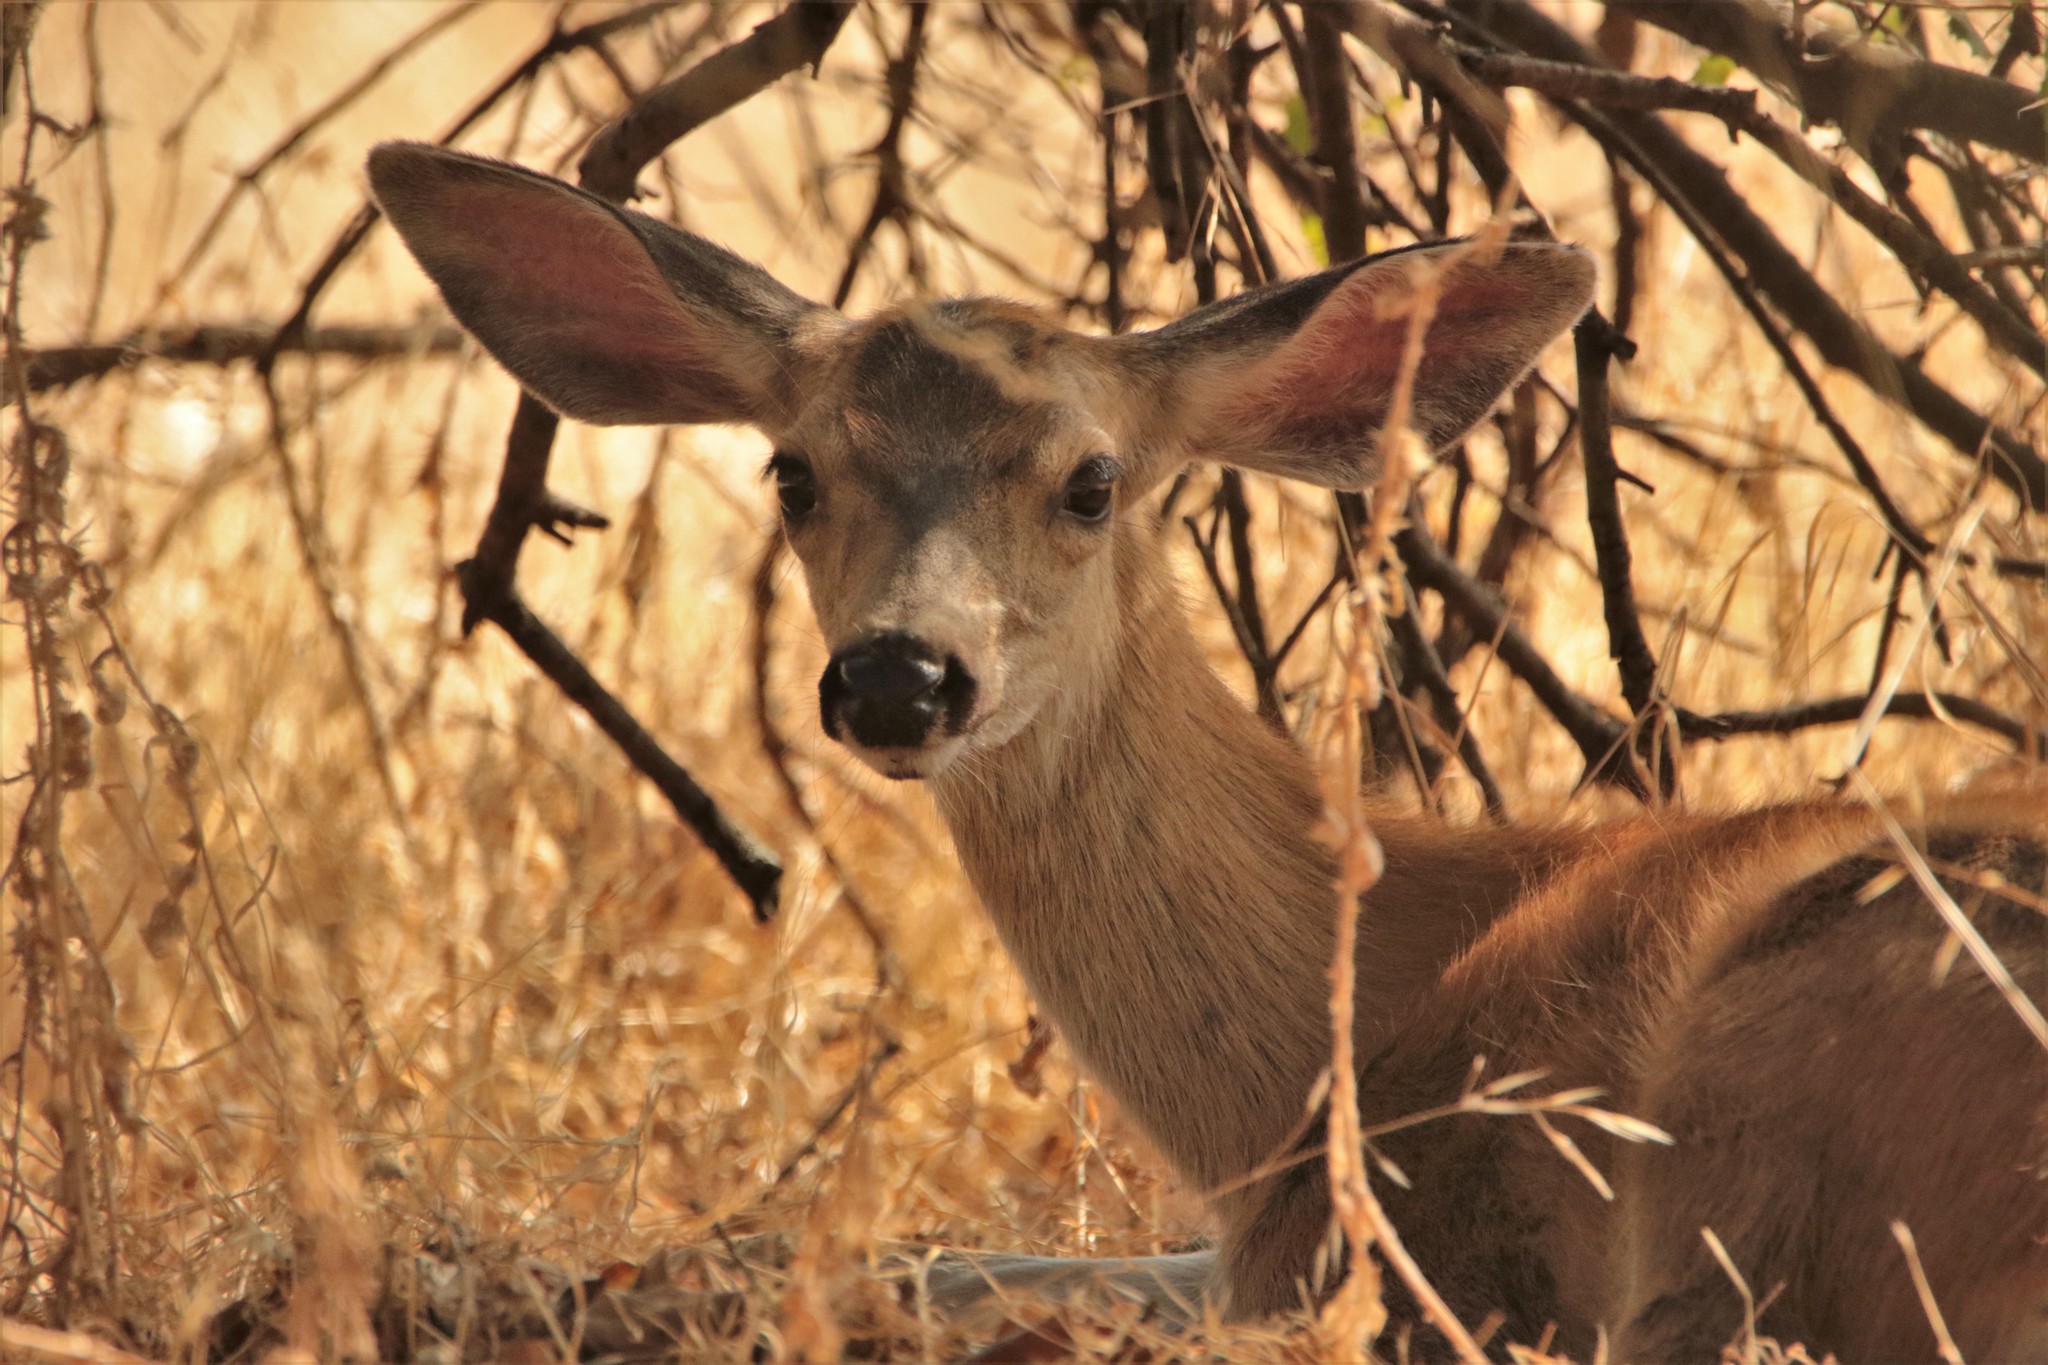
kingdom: Animalia
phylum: Chordata
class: Mammalia
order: Artiodactyla
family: Cervidae
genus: Odocoileus
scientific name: Odocoileus hemionus
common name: Mule deer
